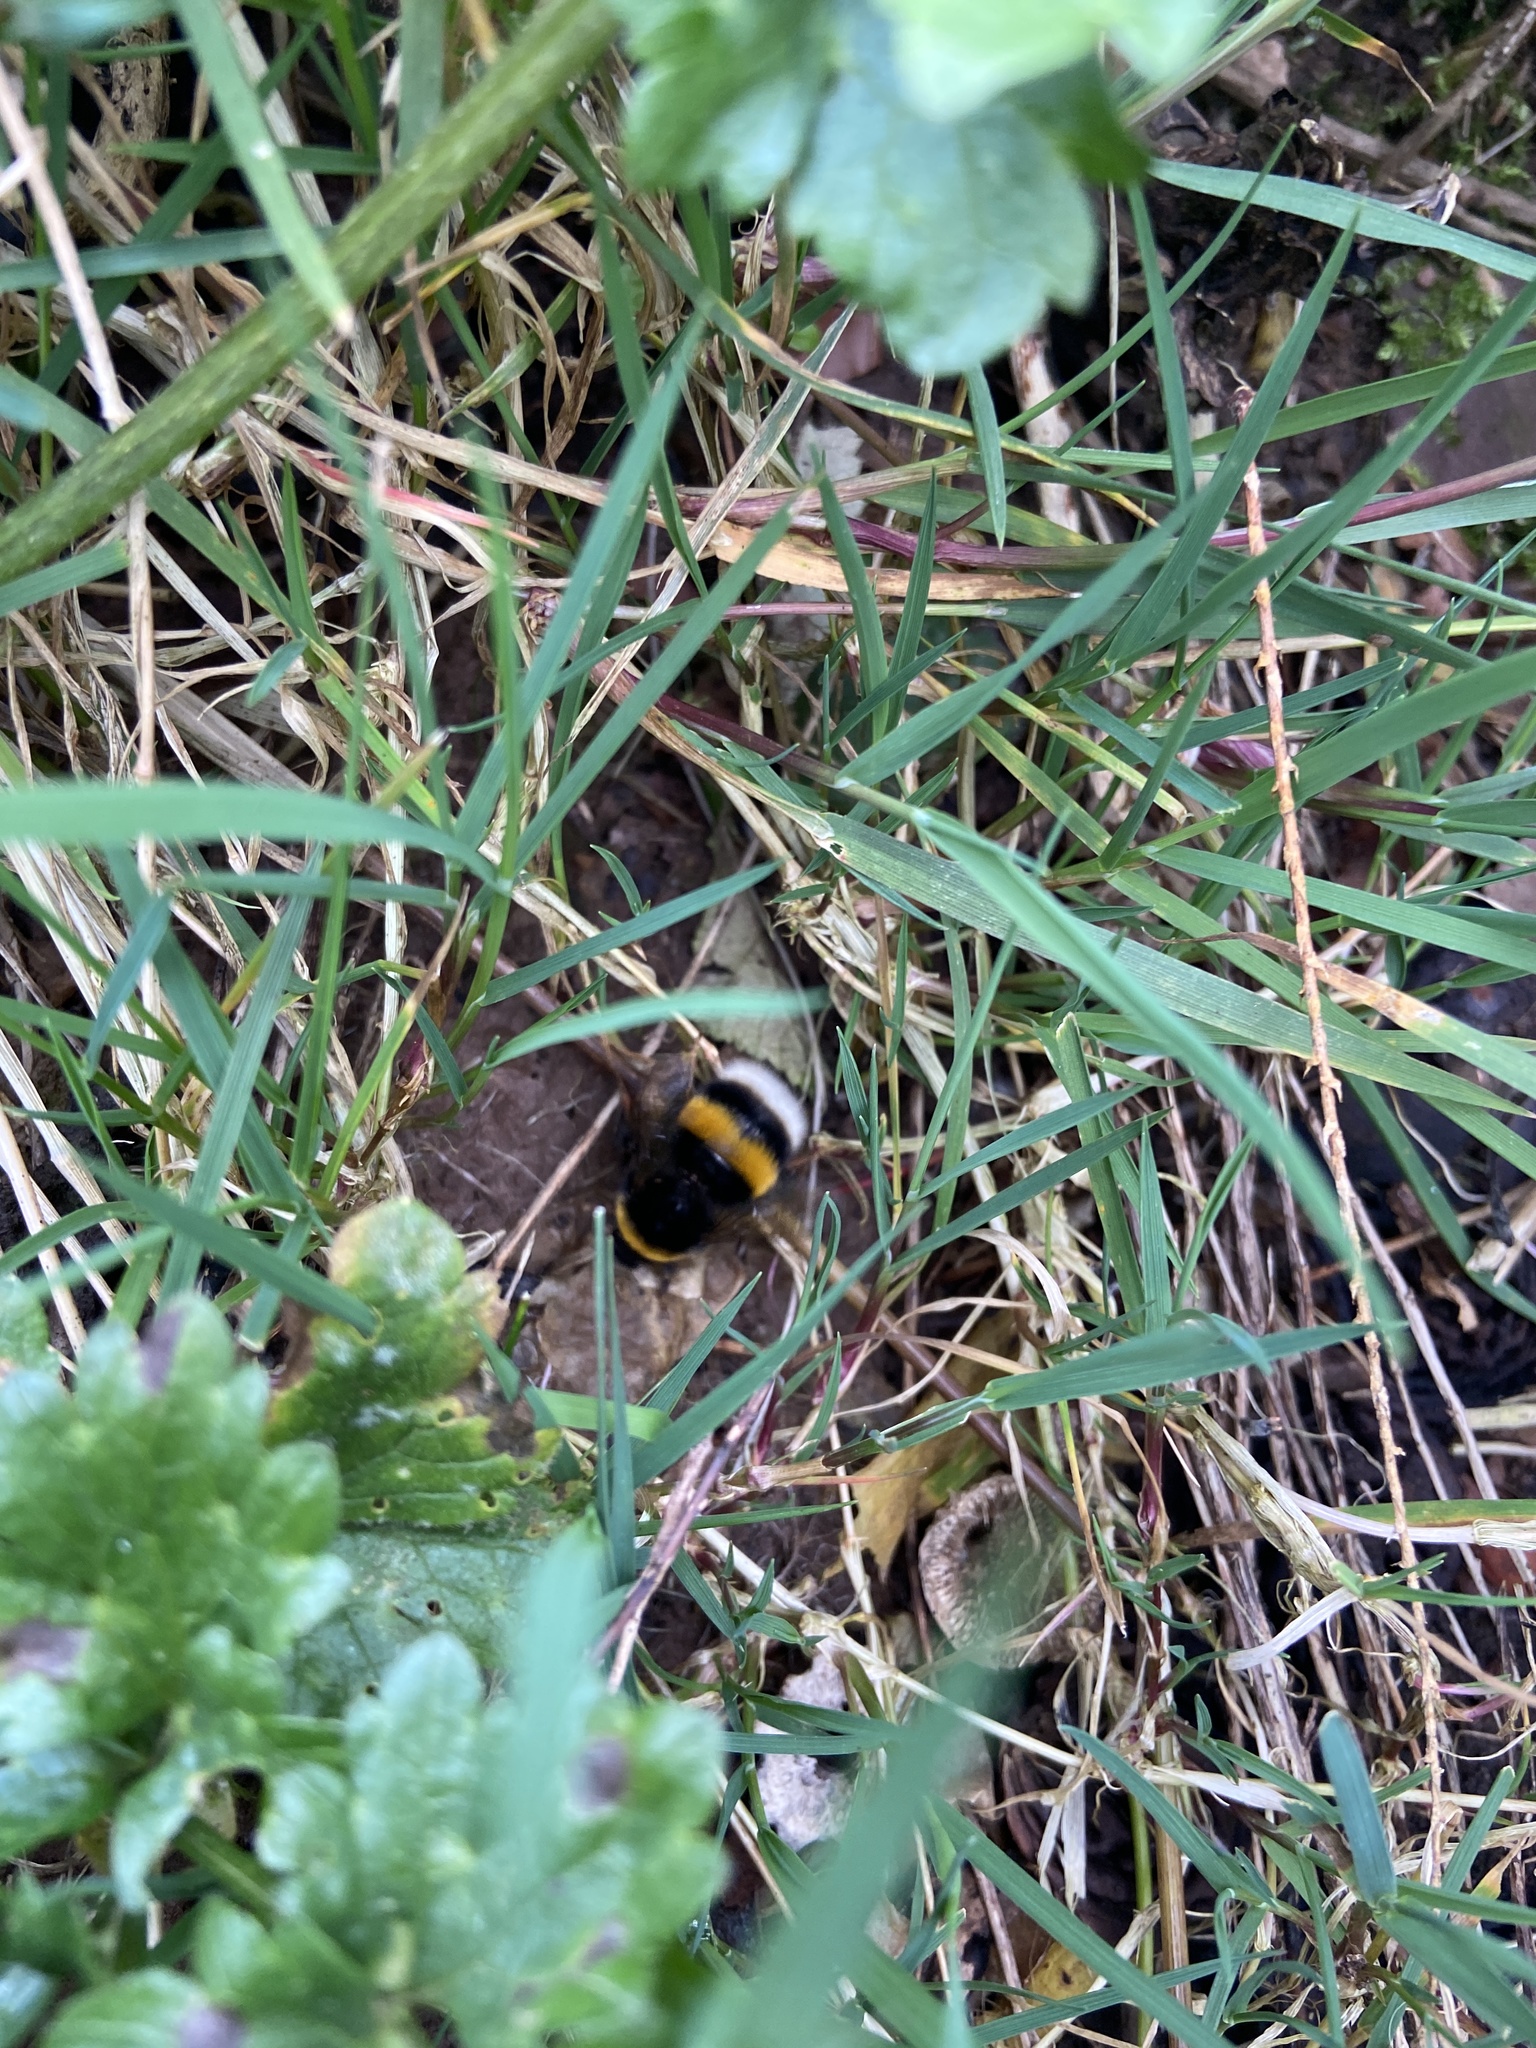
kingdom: Animalia
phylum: Arthropoda
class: Insecta
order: Hymenoptera
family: Apidae
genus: Bombus
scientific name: Bombus terrestris
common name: Buff-tailed bumblebee
